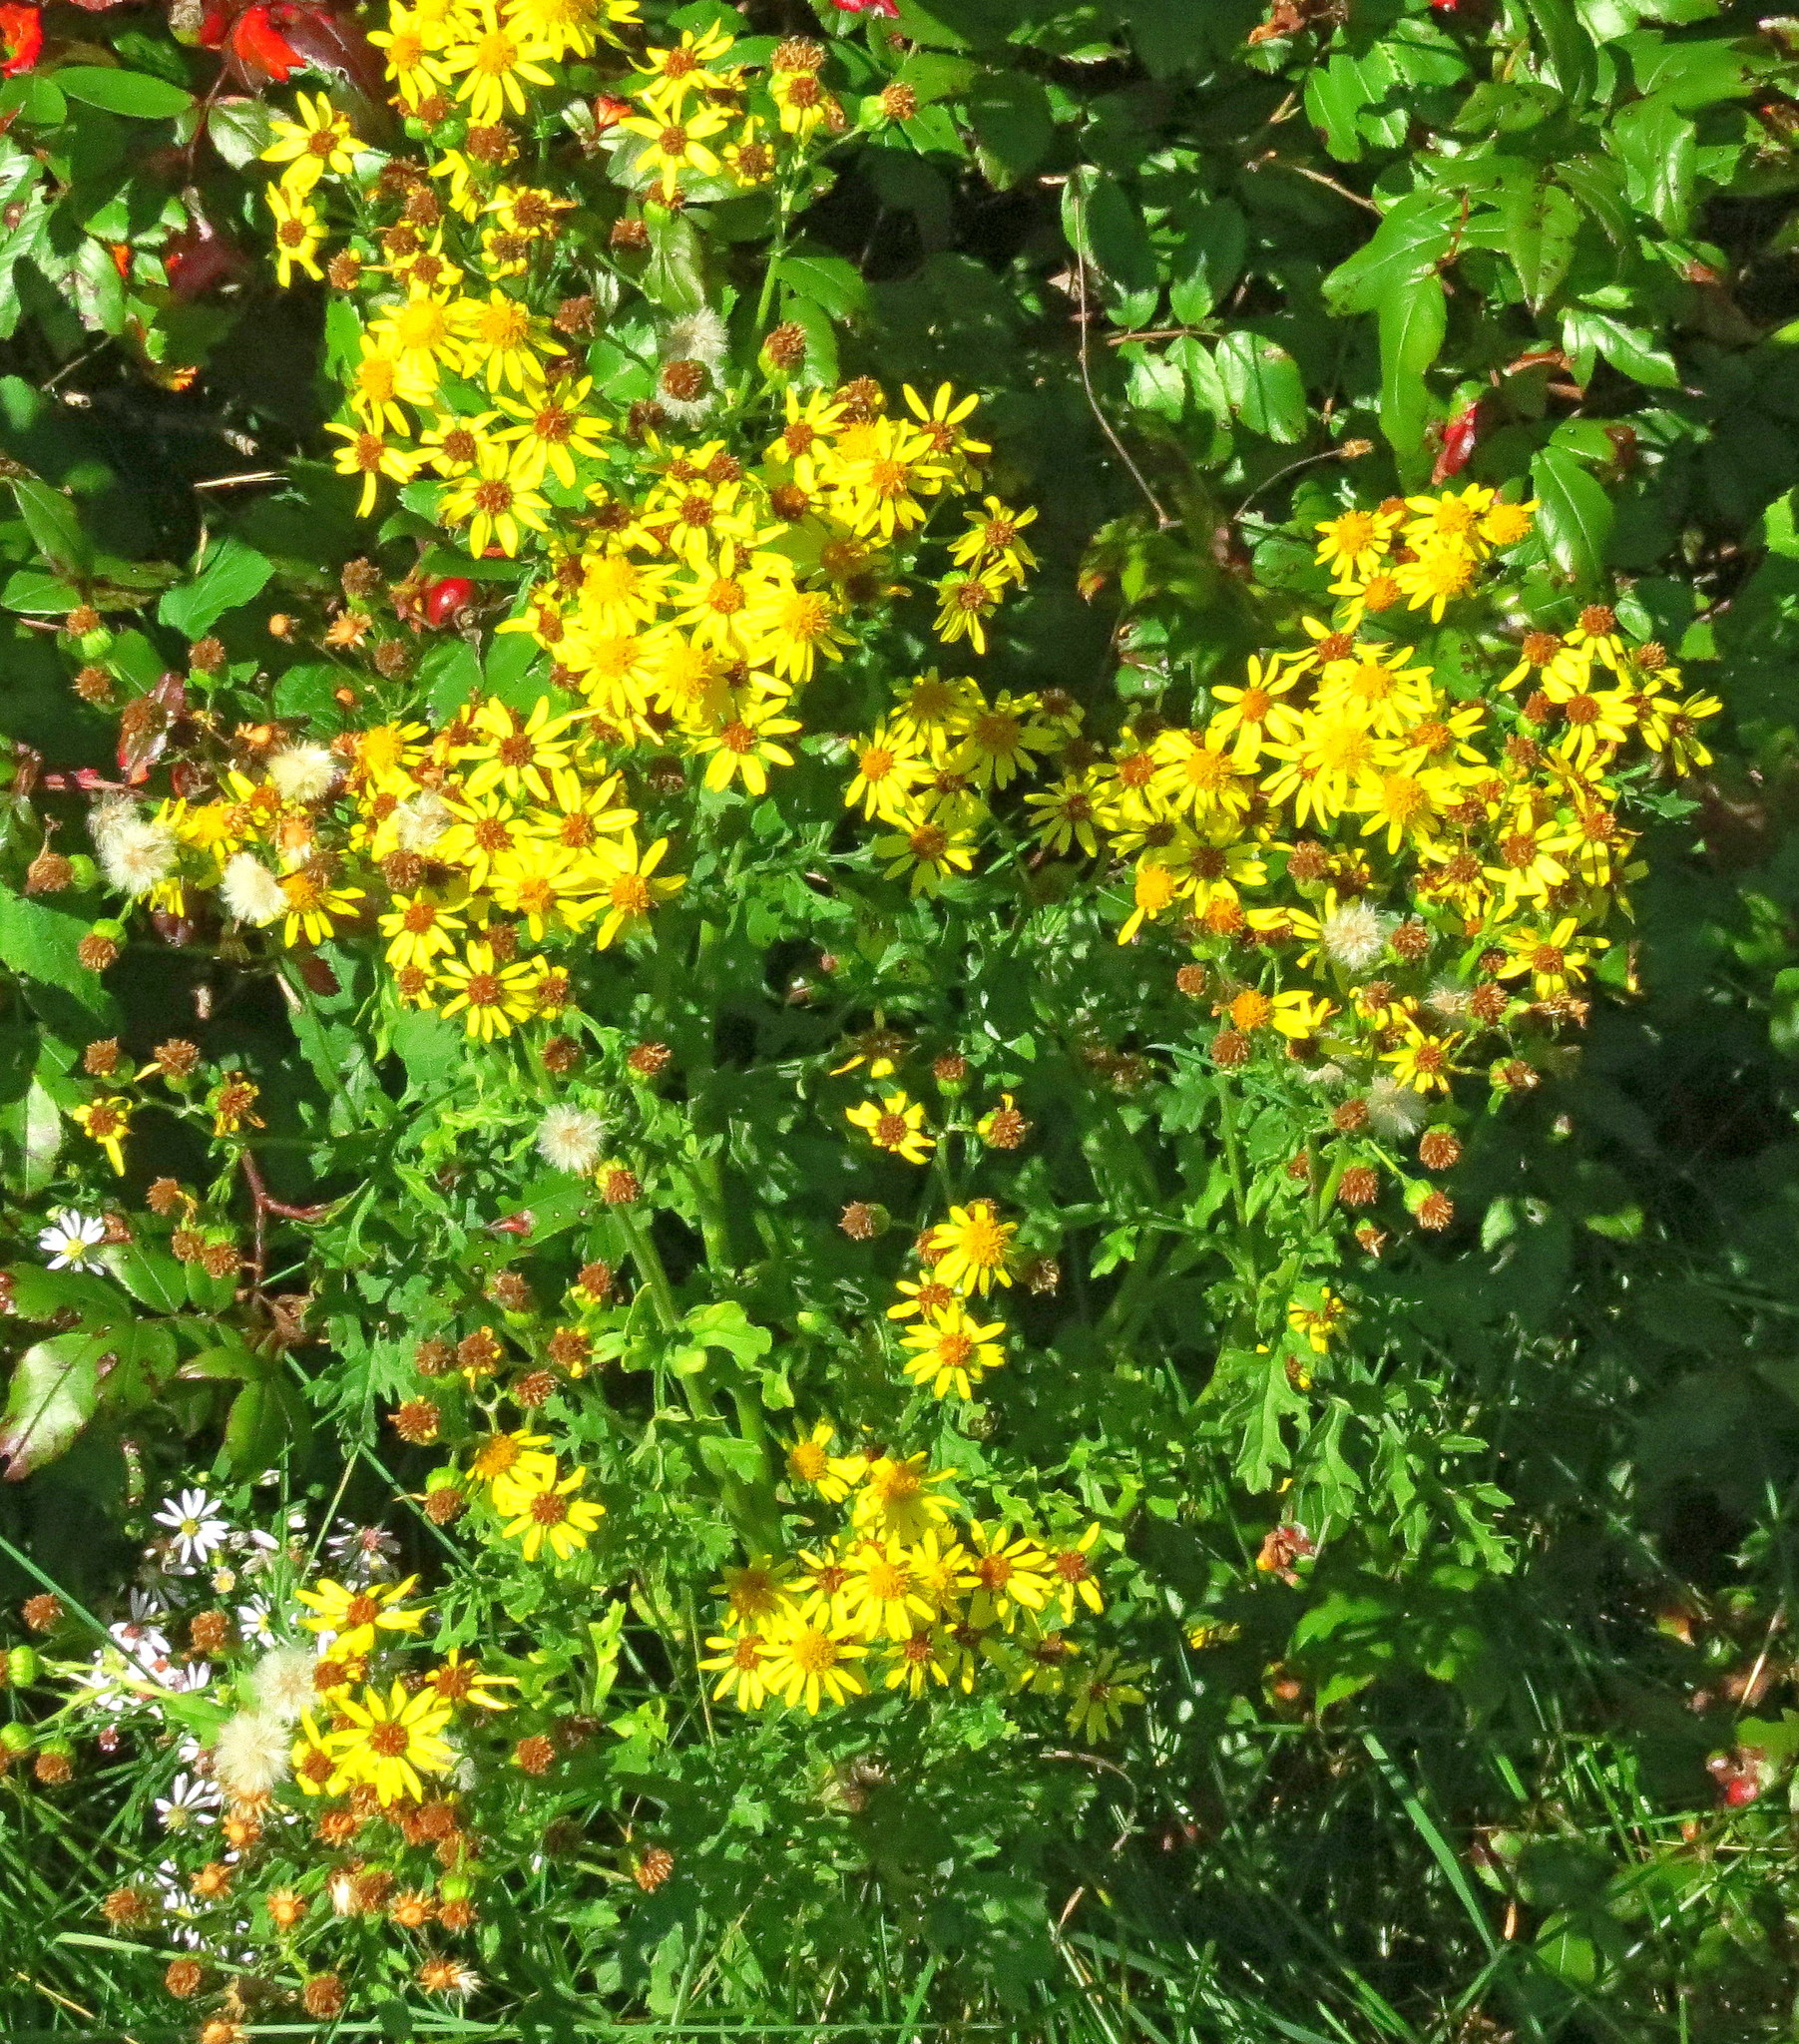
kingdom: Plantae
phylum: Tracheophyta
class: Magnoliopsida
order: Asterales
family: Asteraceae
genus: Jacobaea
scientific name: Jacobaea vulgaris
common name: Stinking willie
